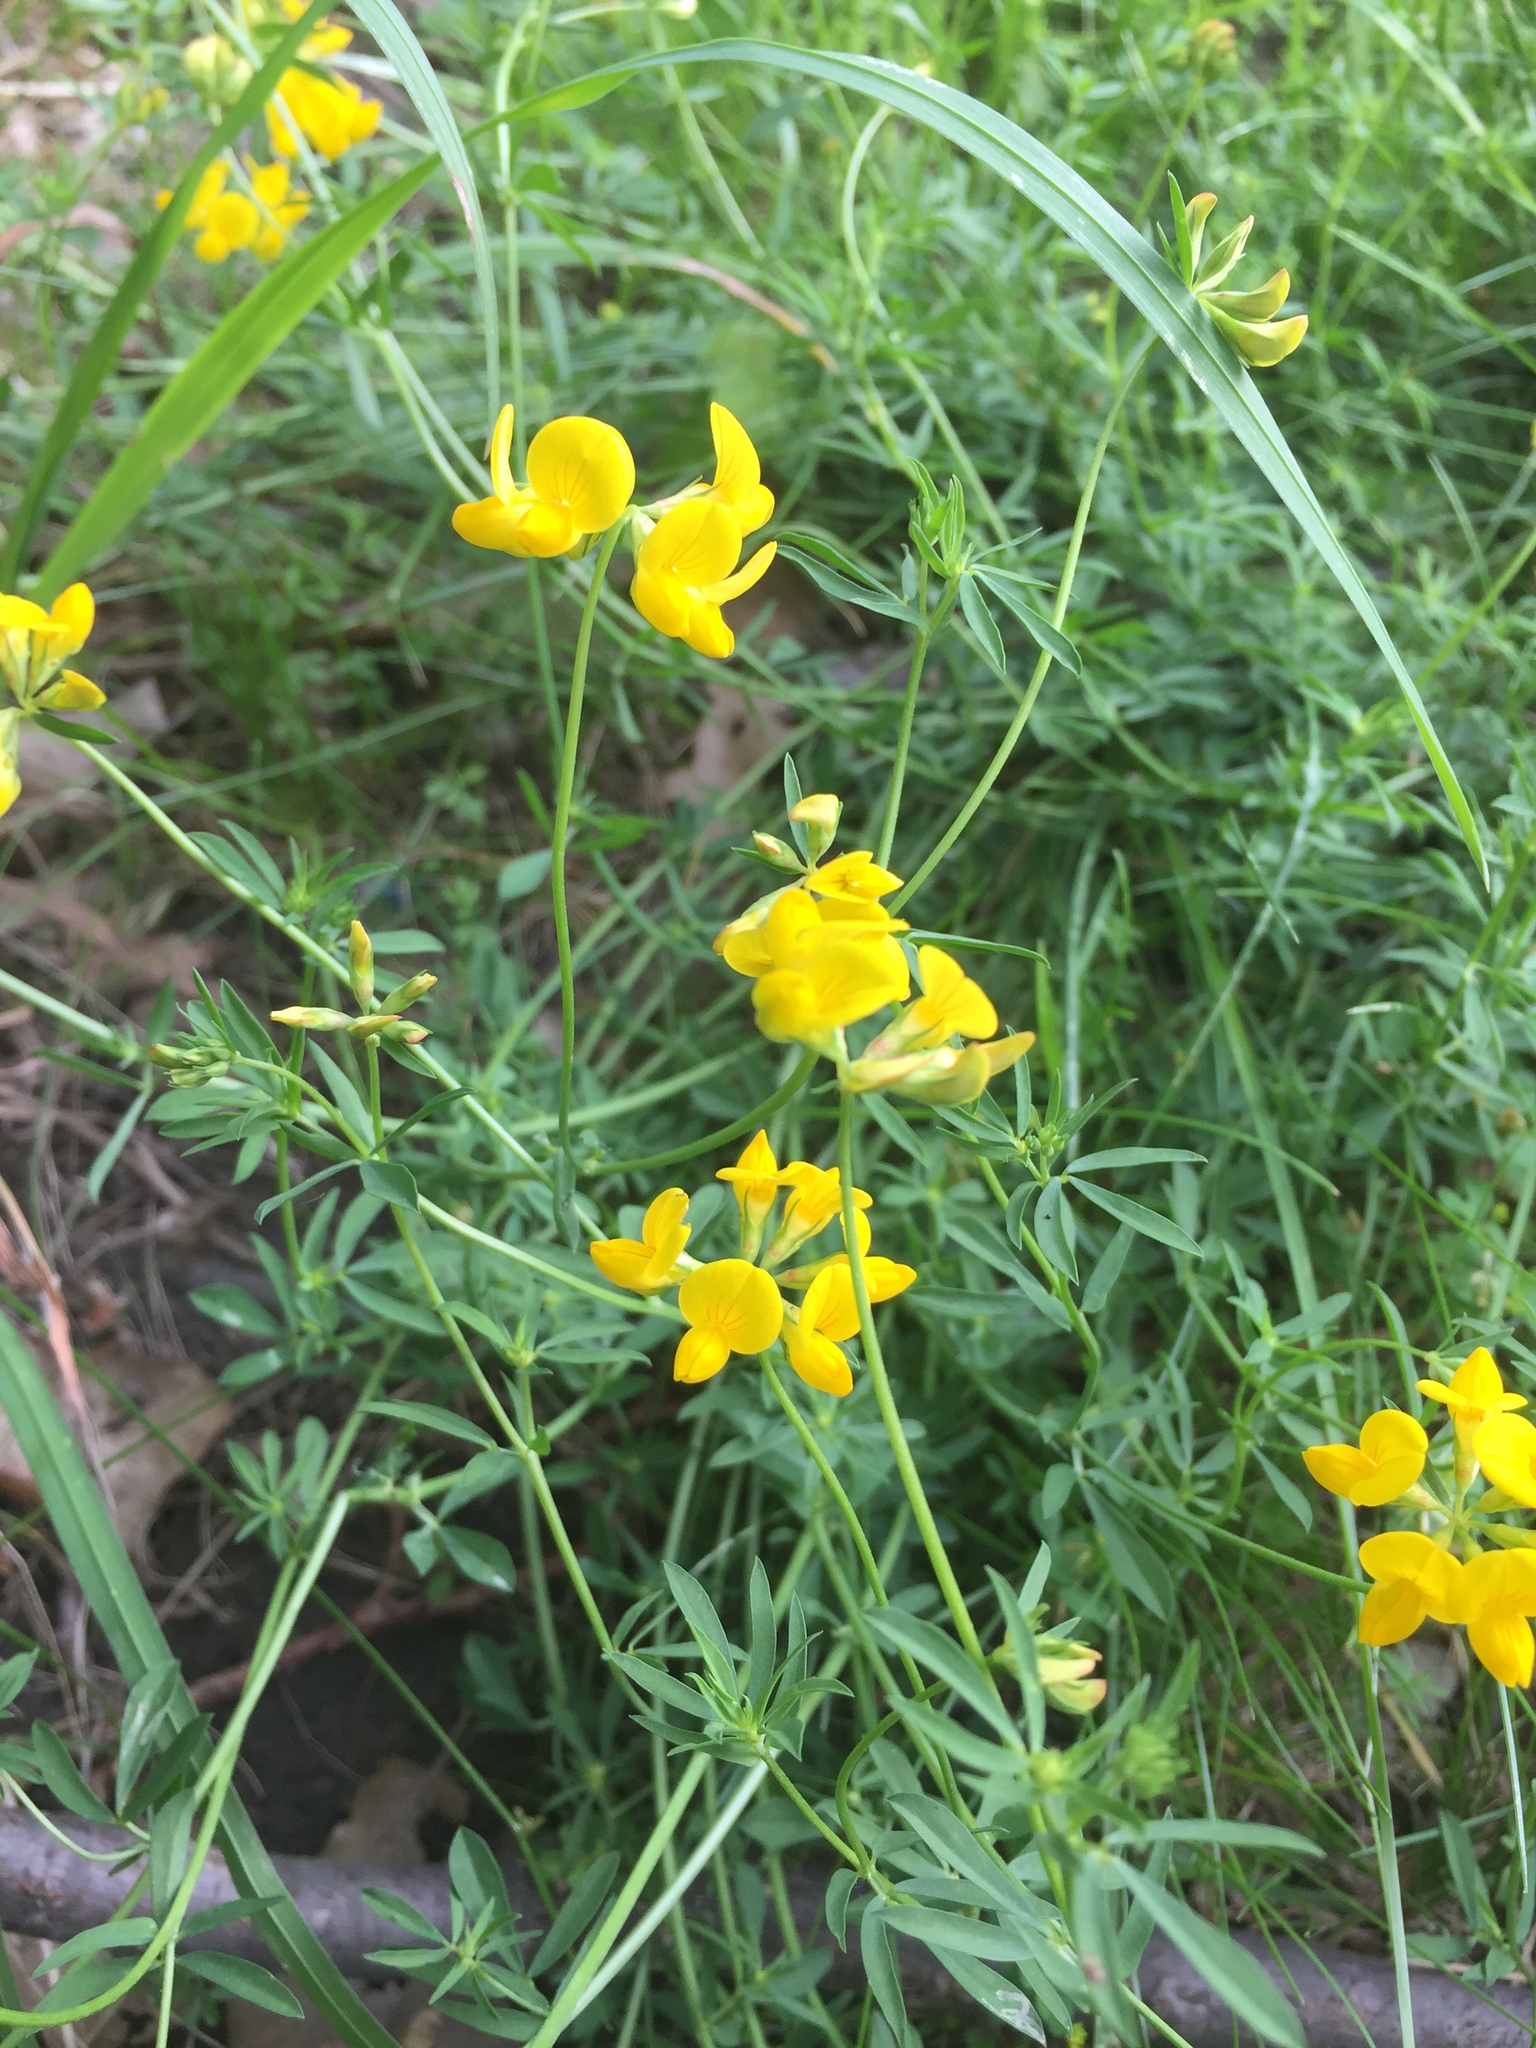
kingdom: Plantae
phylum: Tracheophyta
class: Magnoliopsida
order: Fabales
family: Fabaceae
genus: Lotus
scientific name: Lotus corniculatus
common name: Common bird's-foot-trefoil
